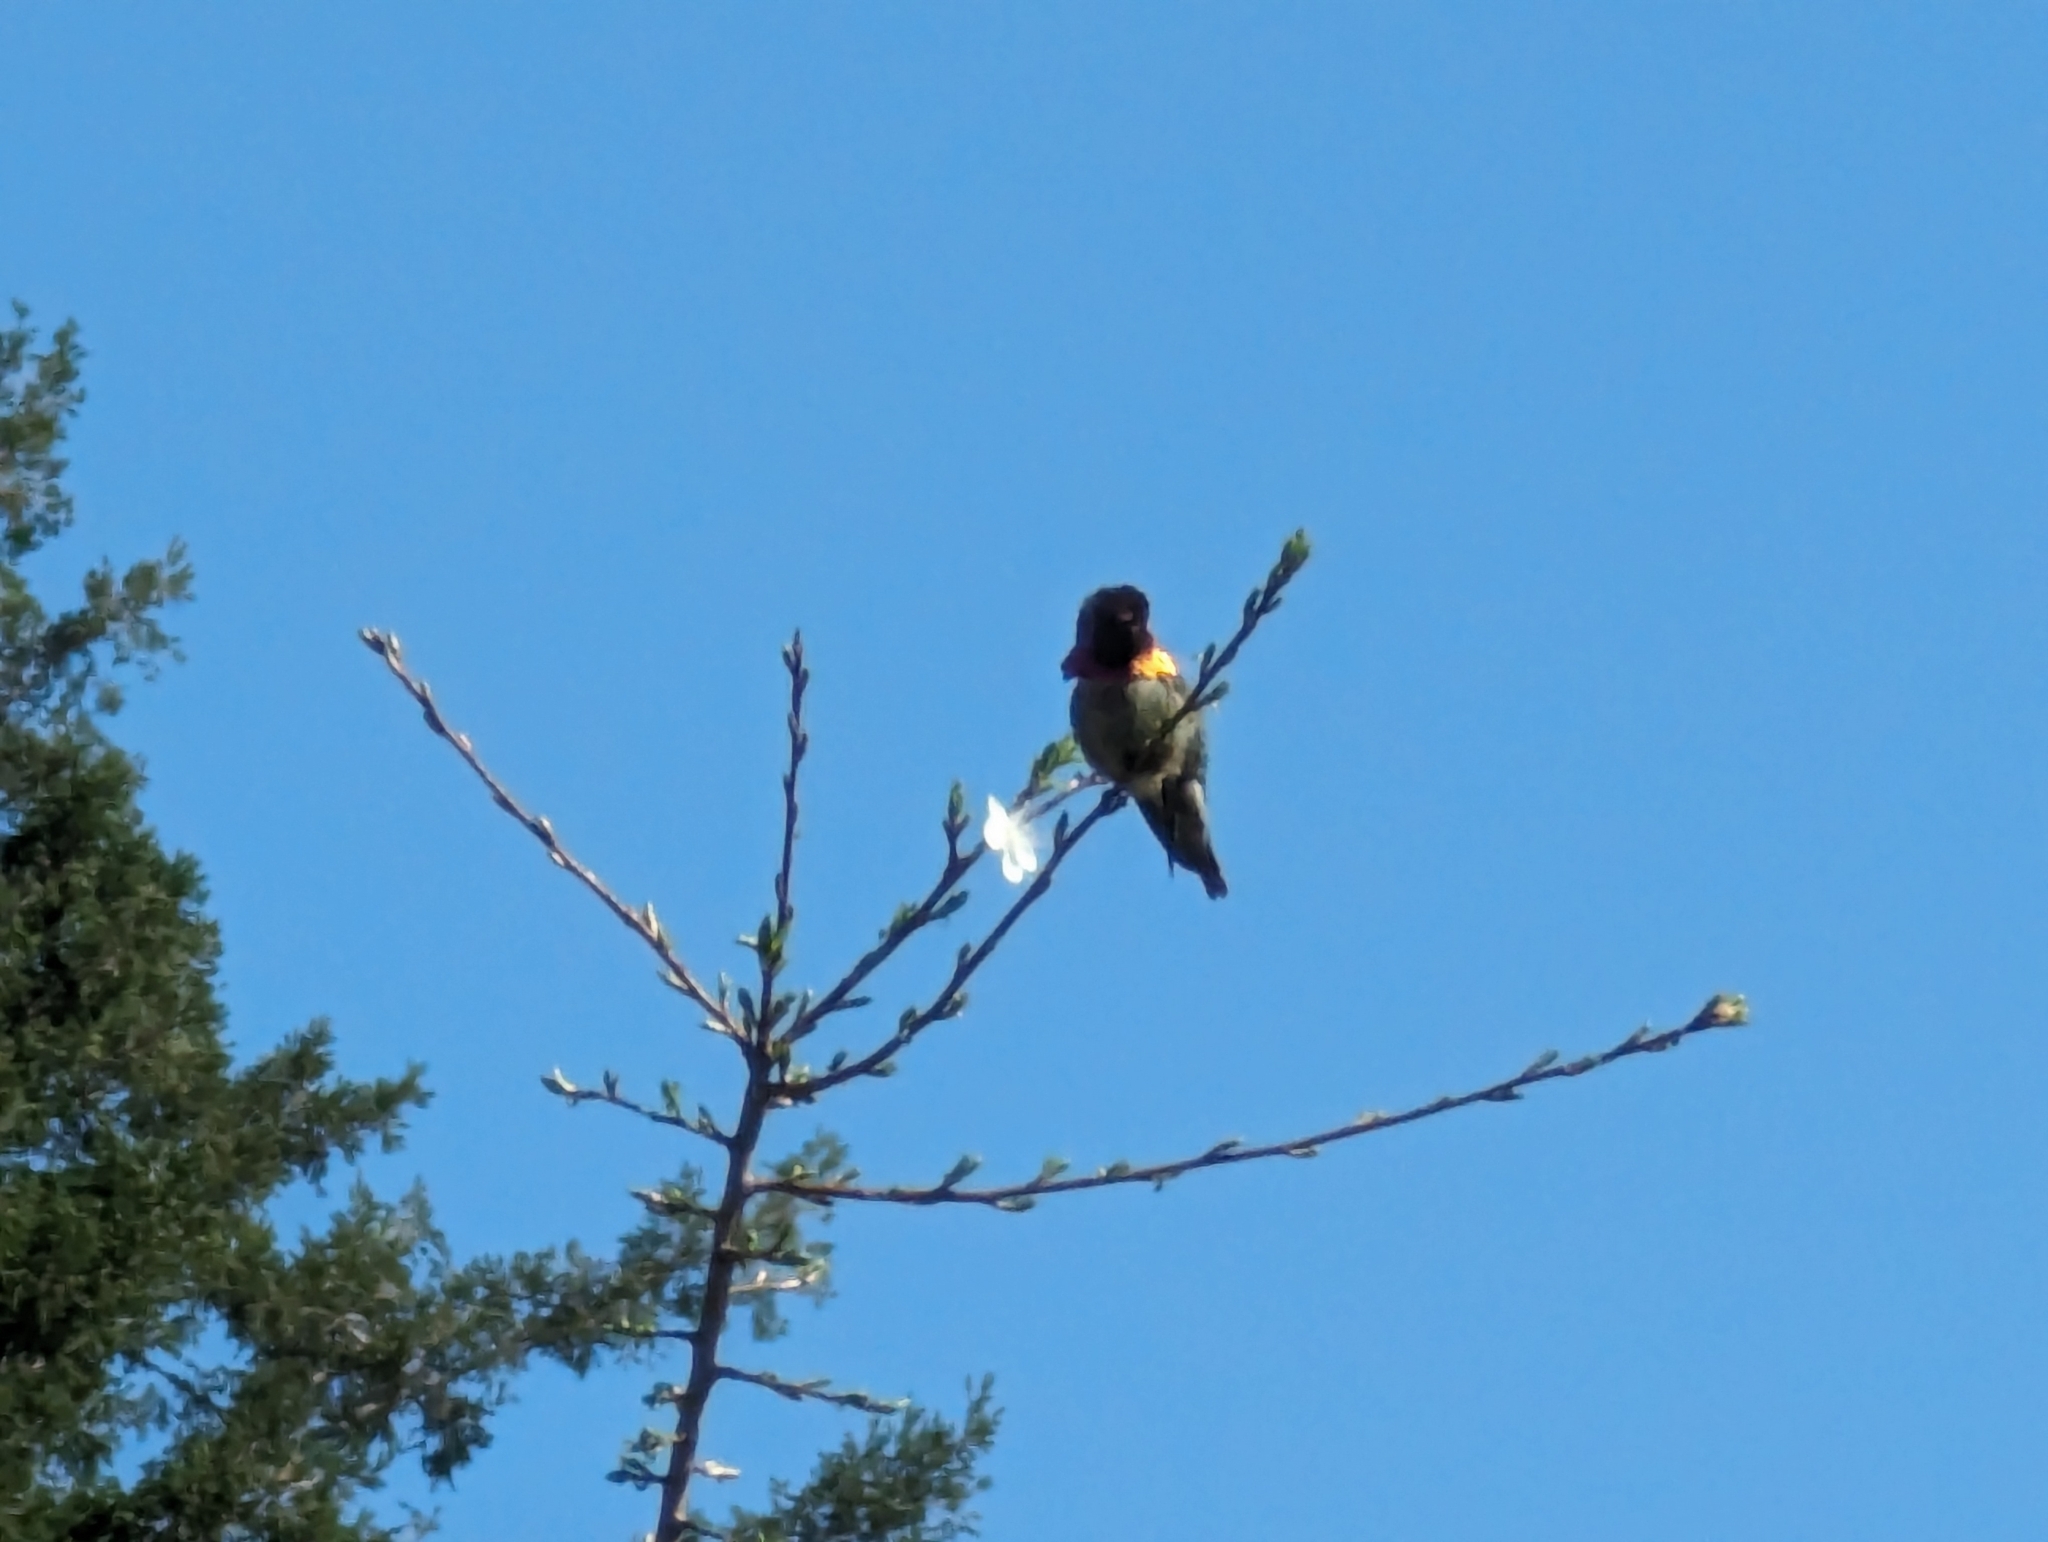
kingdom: Animalia
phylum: Chordata
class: Aves
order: Apodiformes
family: Trochilidae
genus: Calypte
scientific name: Calypte anna
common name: Anna's hummingbird
